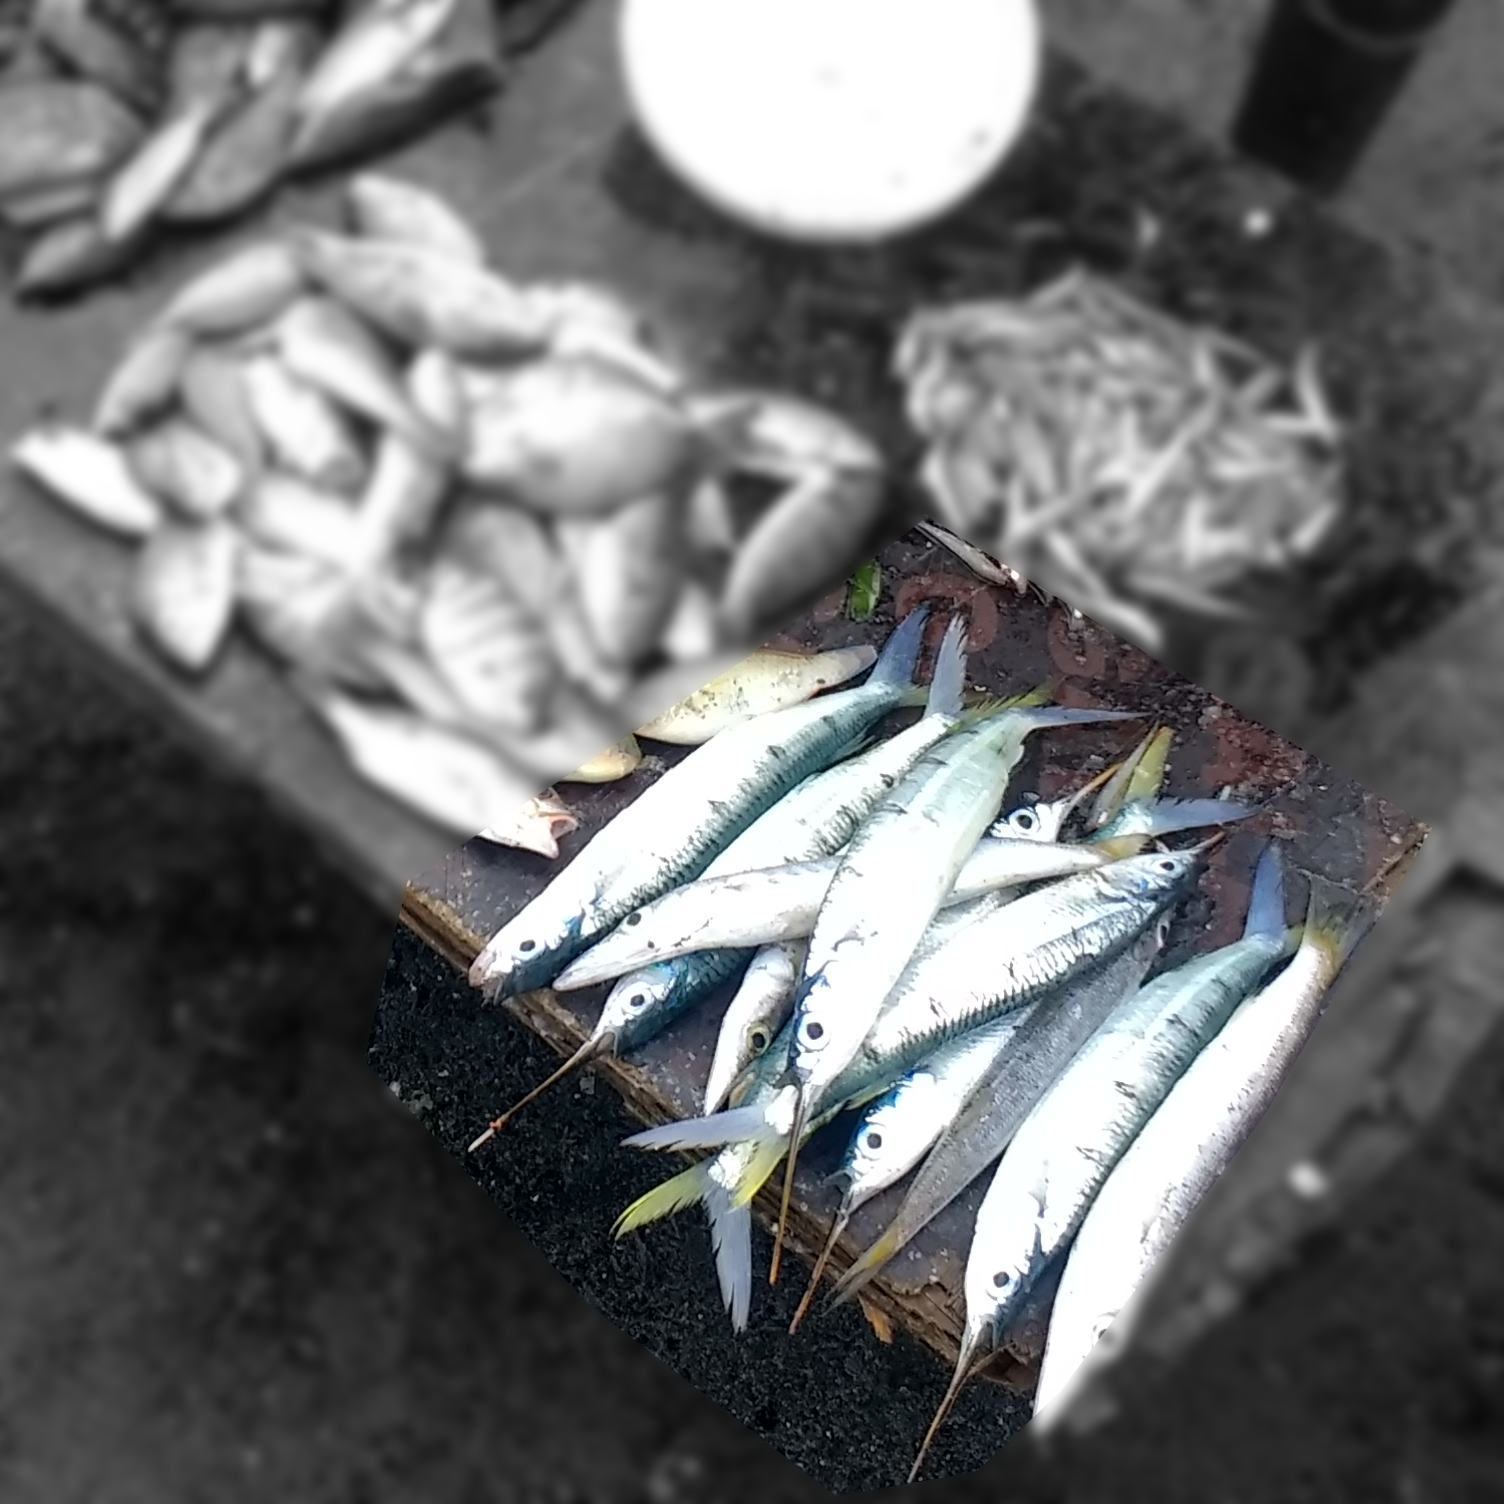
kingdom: Animalia
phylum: Chordata
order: Beloniformes
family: Hemiramphidae
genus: Hemiramphus
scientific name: Hemiramphus far
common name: Black-barred halfbeak
